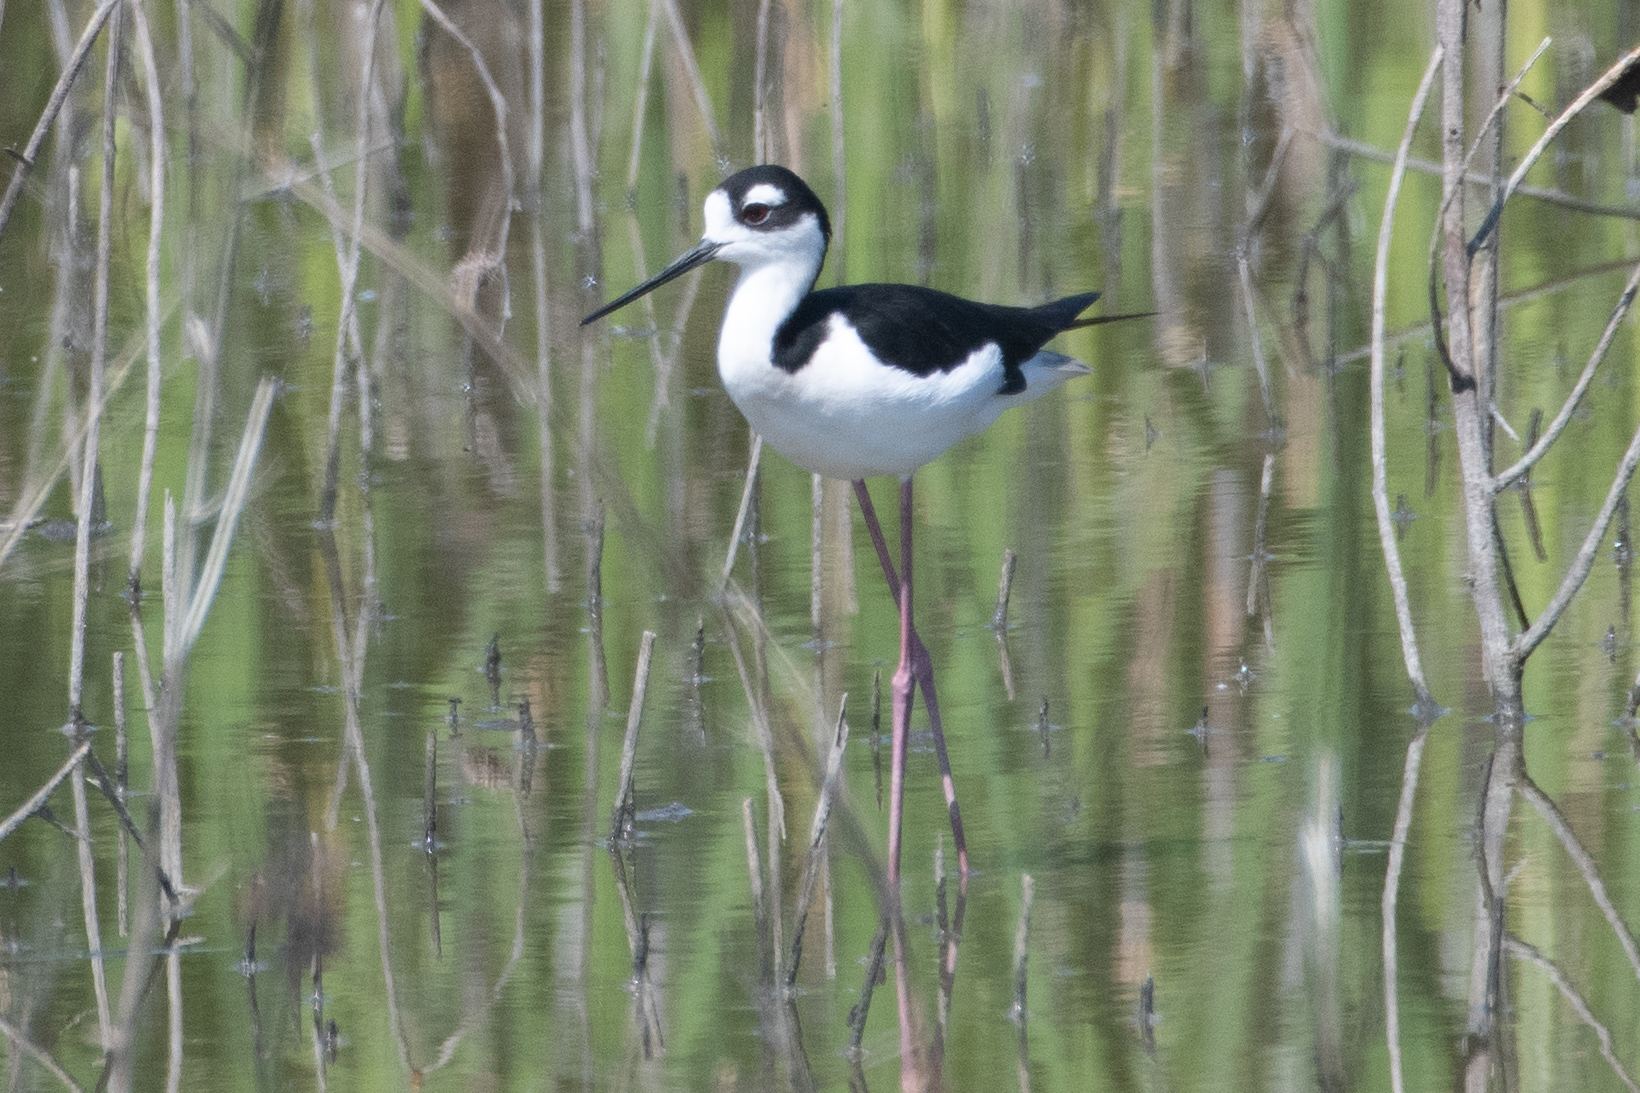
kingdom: Animalia
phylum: Chordata
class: Aves
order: Charadriiformes
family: Recurvirostridae
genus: Himantopus
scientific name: Himantopus mexicanus
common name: Black-necked stilt
